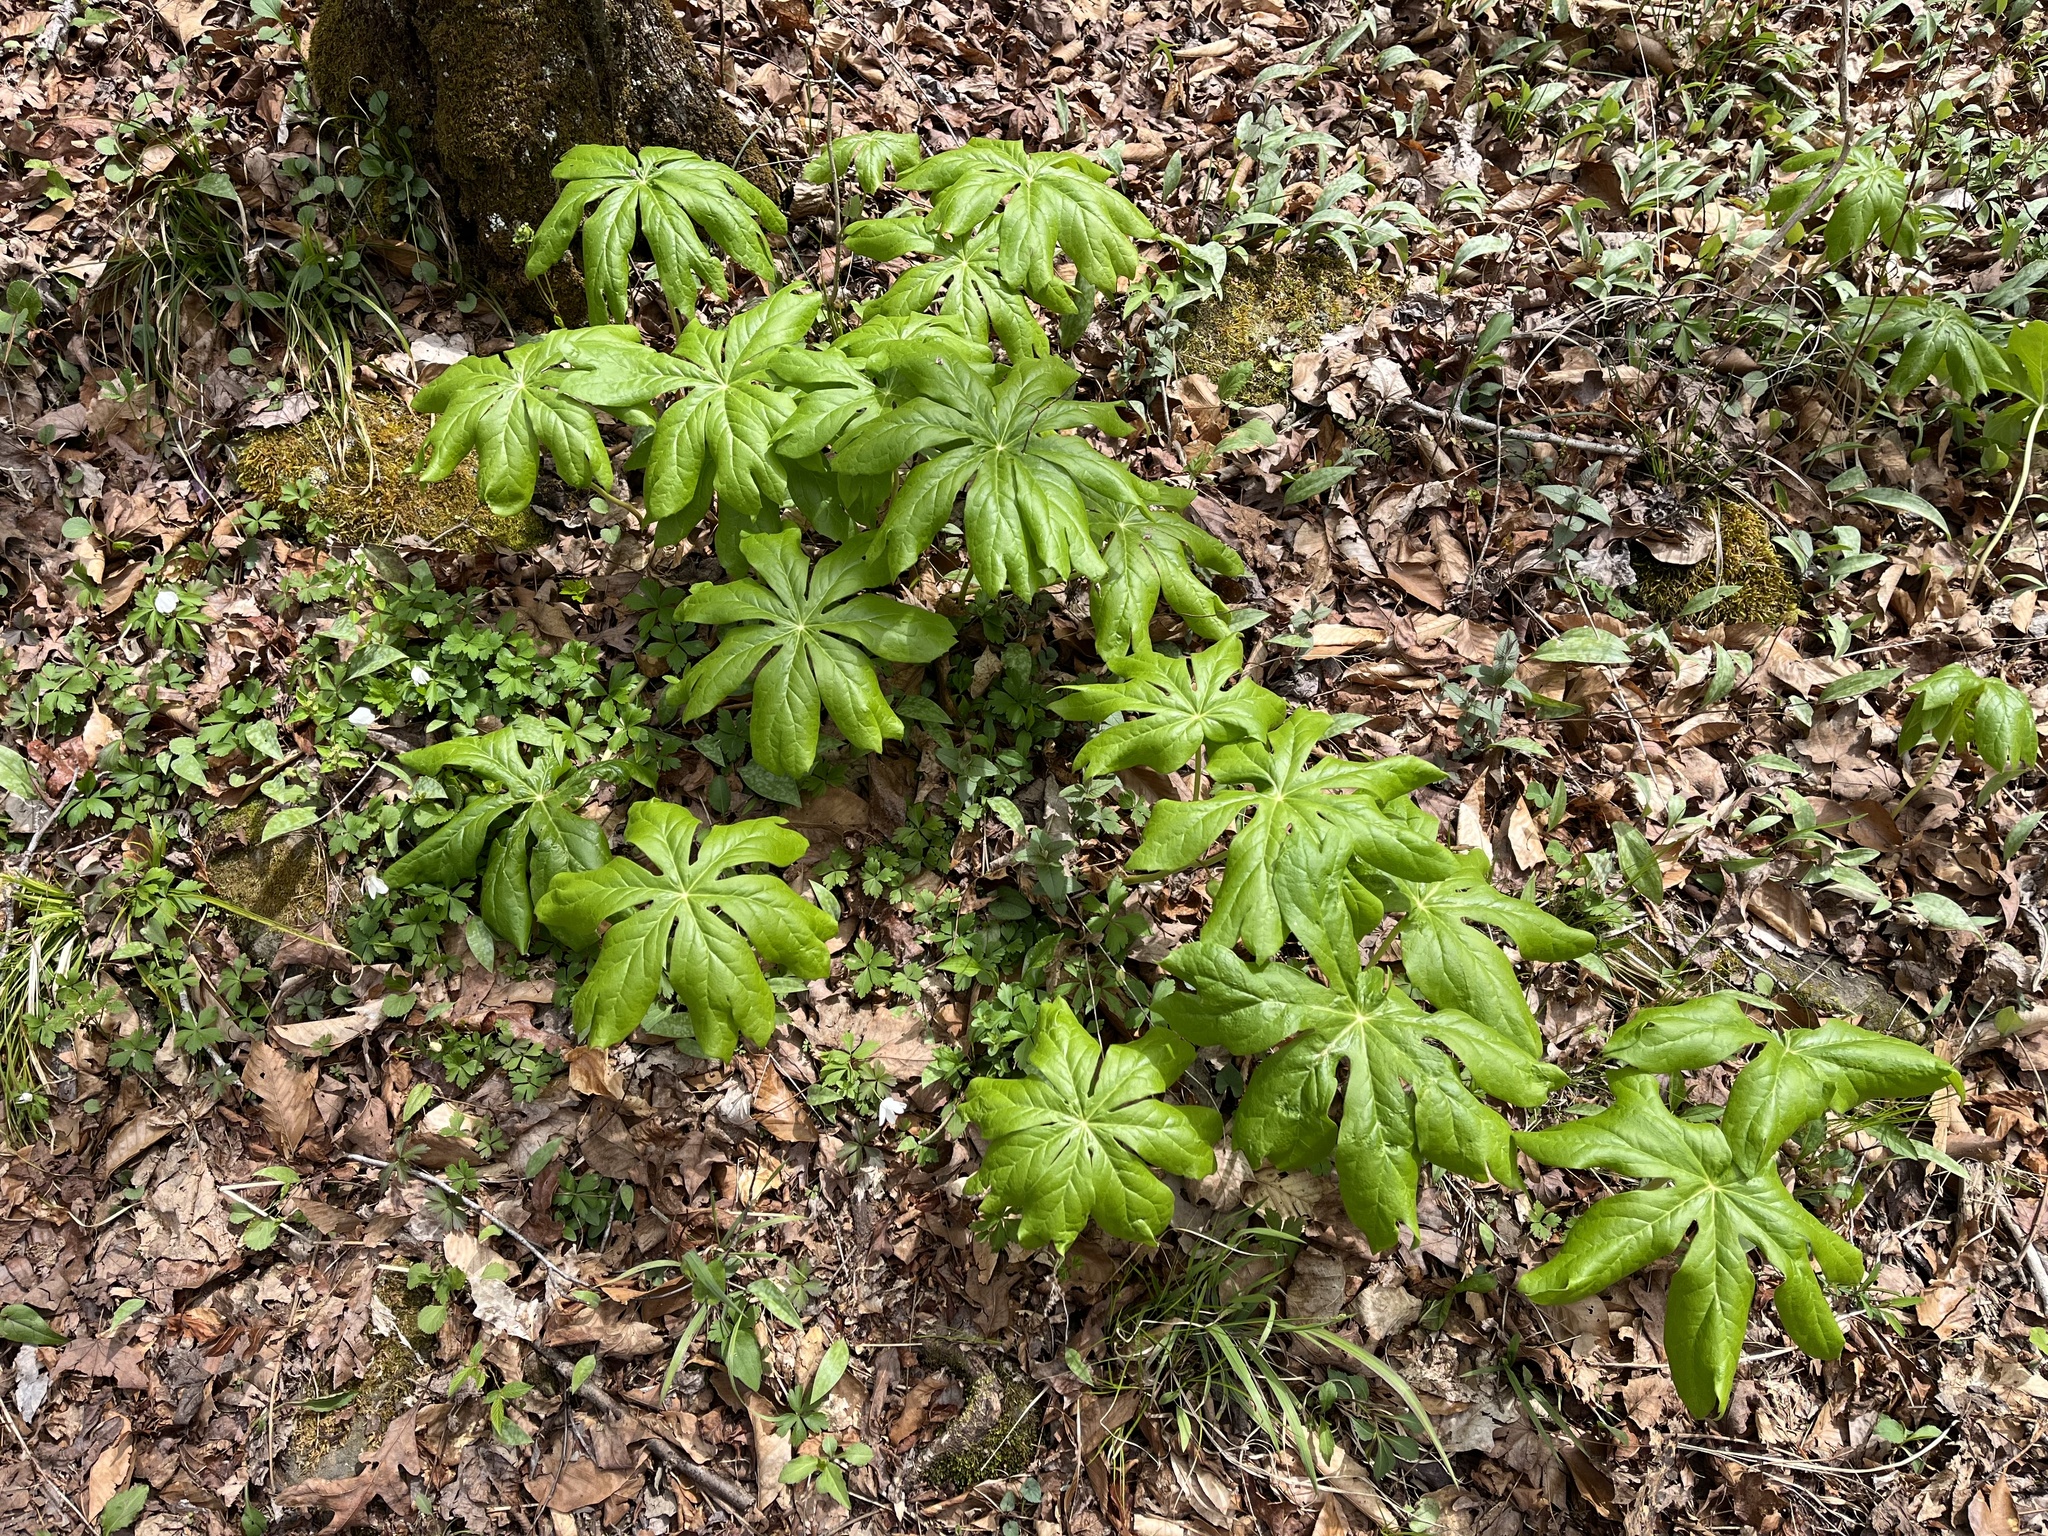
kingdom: Plantae
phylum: Tracheophyta
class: Magnoliopsida
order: Ranunculales
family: Berberidaceae
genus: Podophyllum
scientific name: Podophyllum peltatum
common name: Wild mandrake
